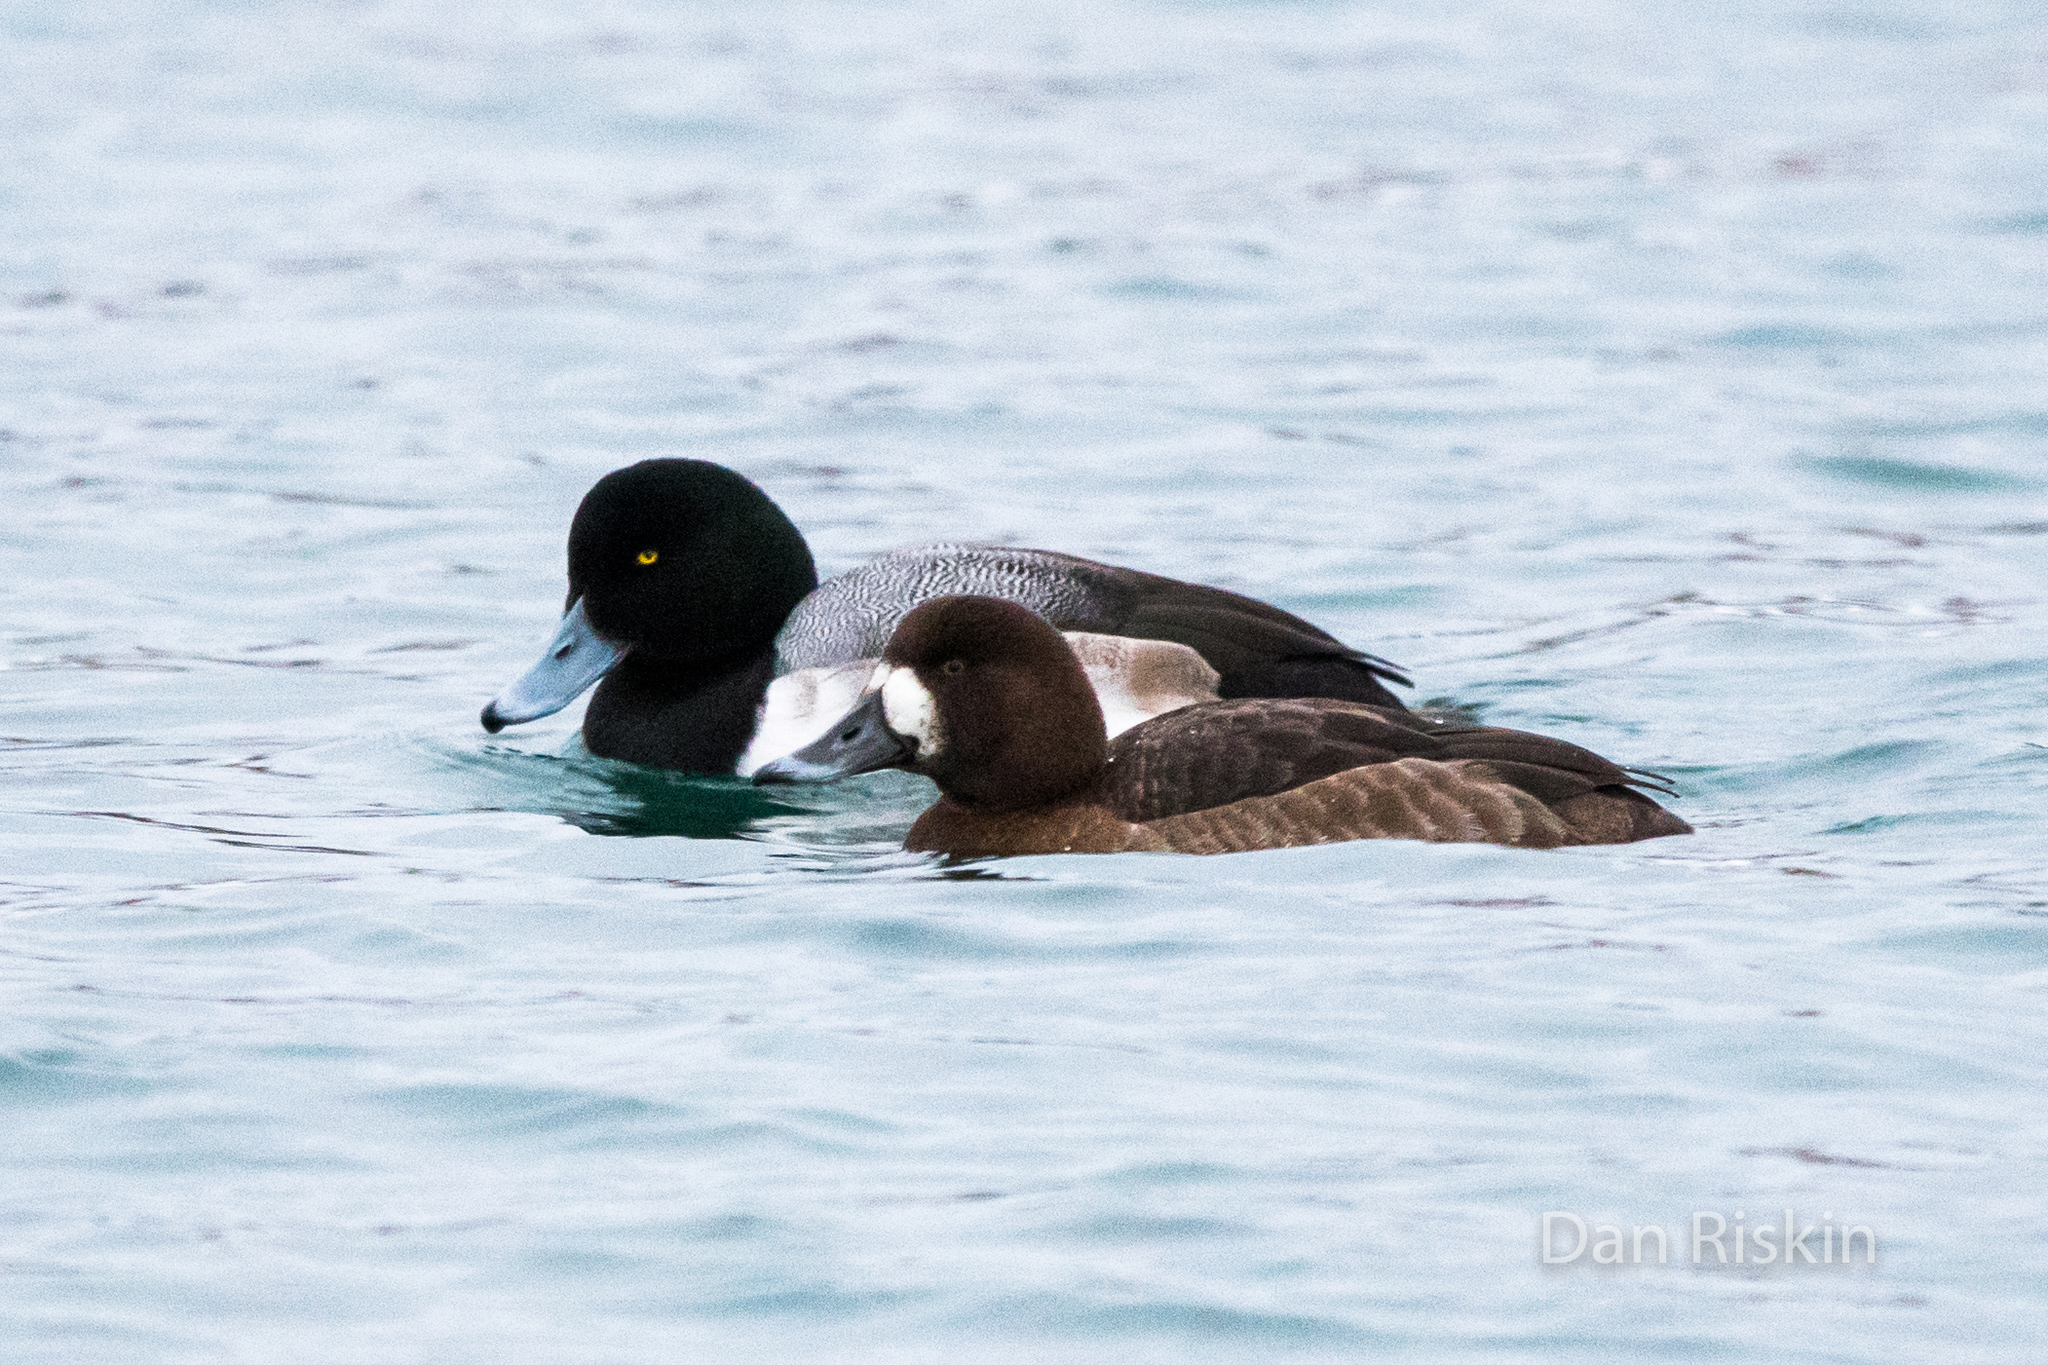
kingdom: Animalia
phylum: Chordata
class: Aves
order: Anseriformes
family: Anatidae
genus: Aythya
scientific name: Aythya marila
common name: Greater scaup
